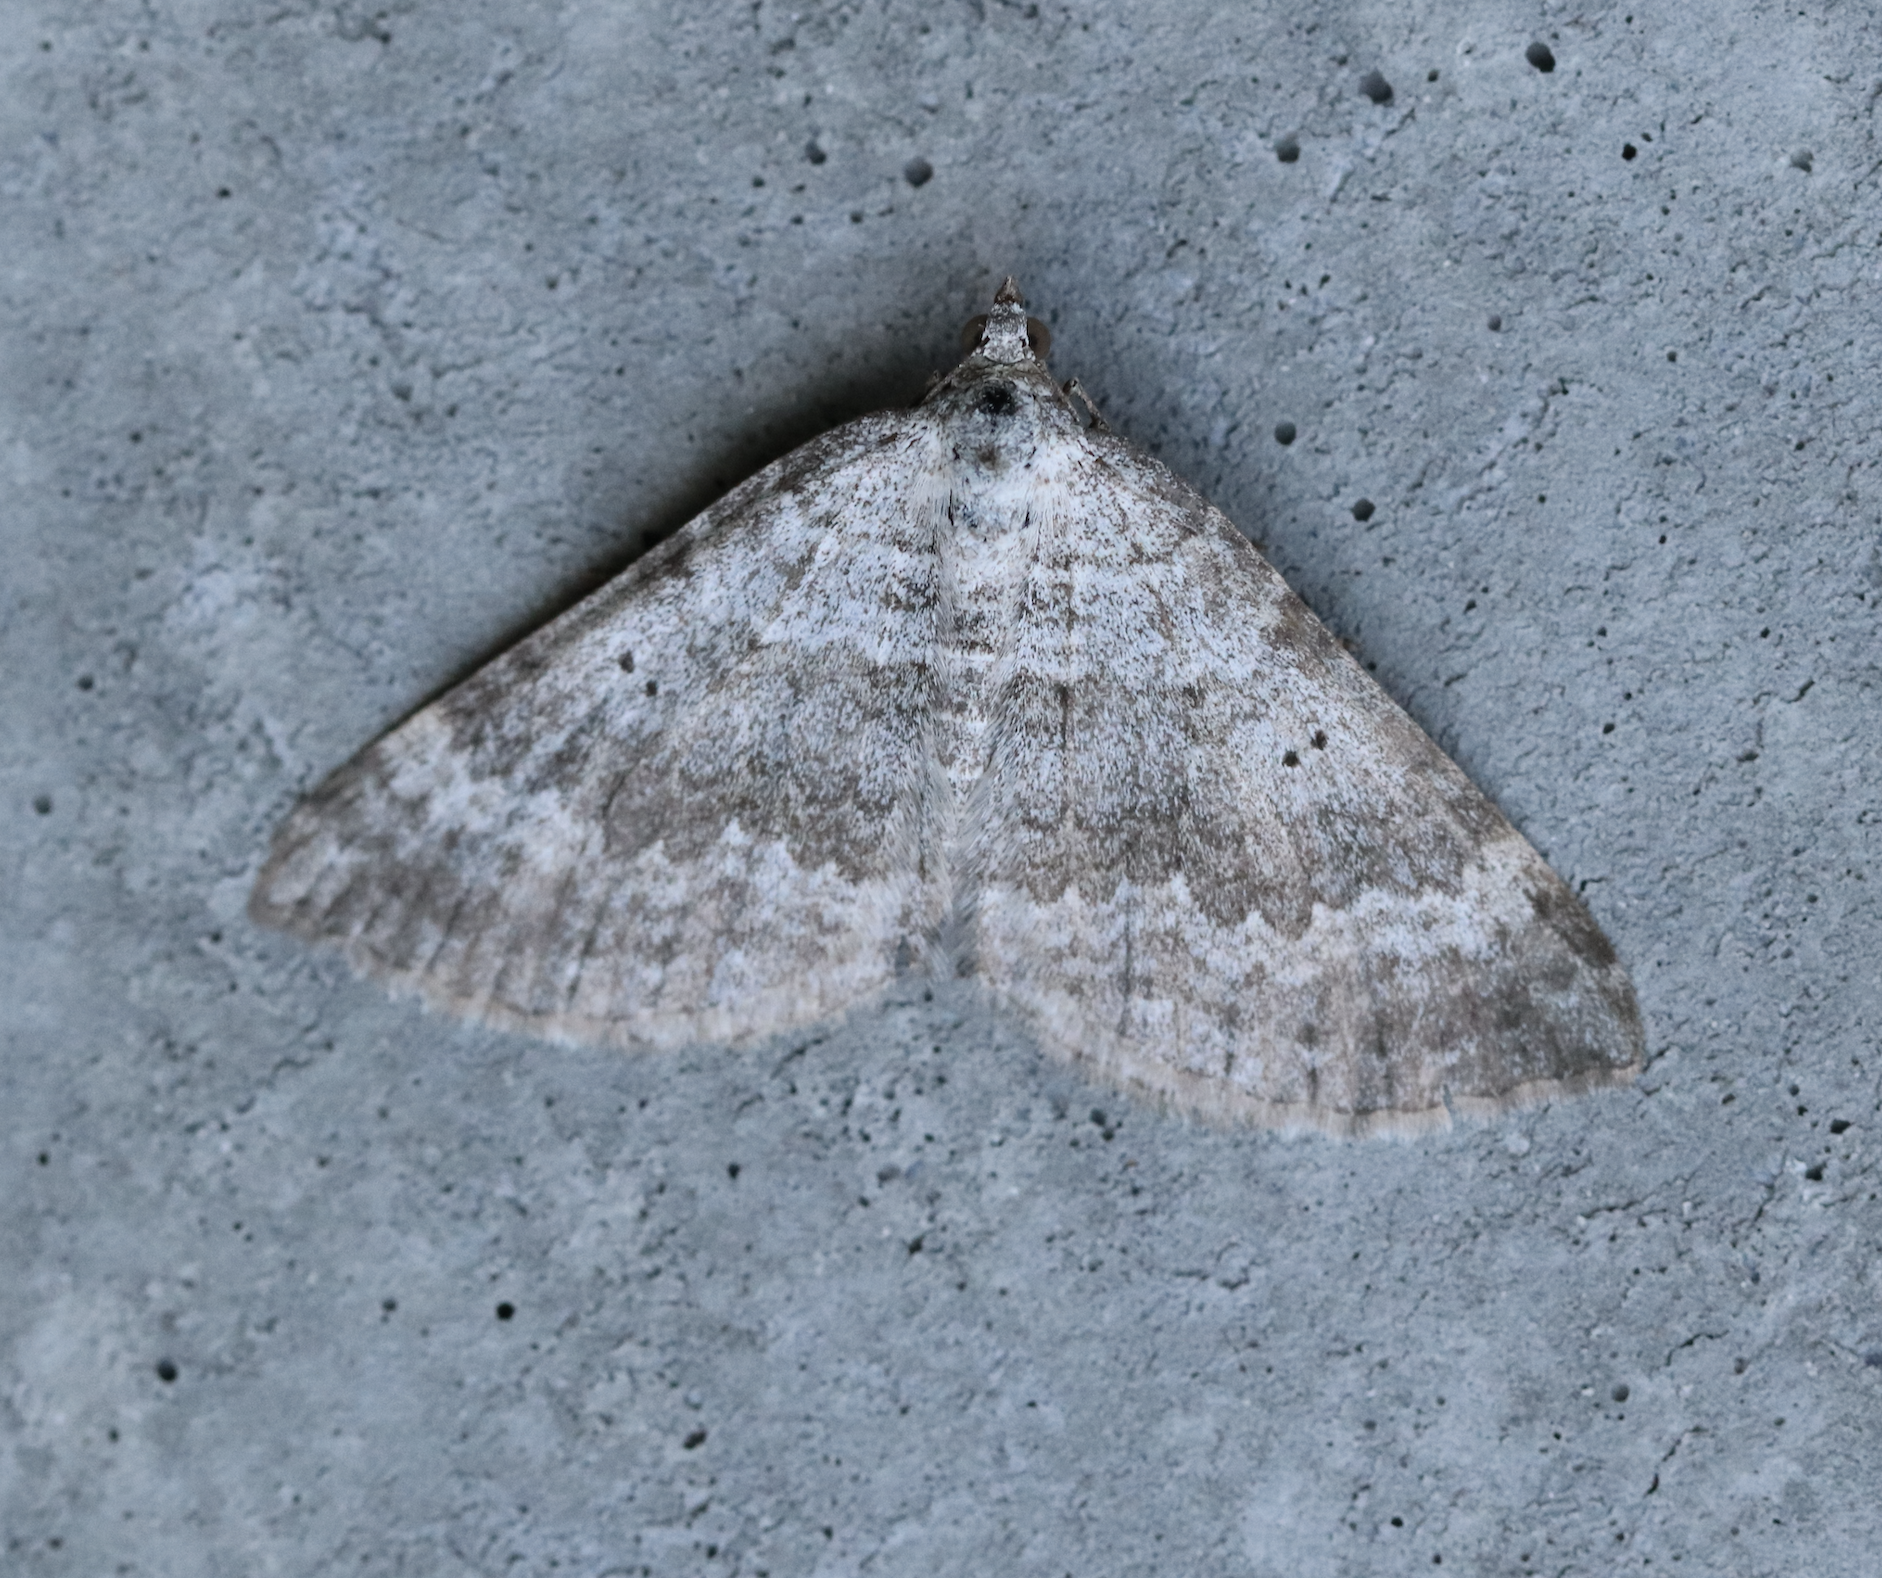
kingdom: Animalia
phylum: Arthropoda
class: Insecta
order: Lepidoptera
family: Geometridae
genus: Scotopteryx
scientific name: Scotopteryx bipunctaria
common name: Chalk carpet
